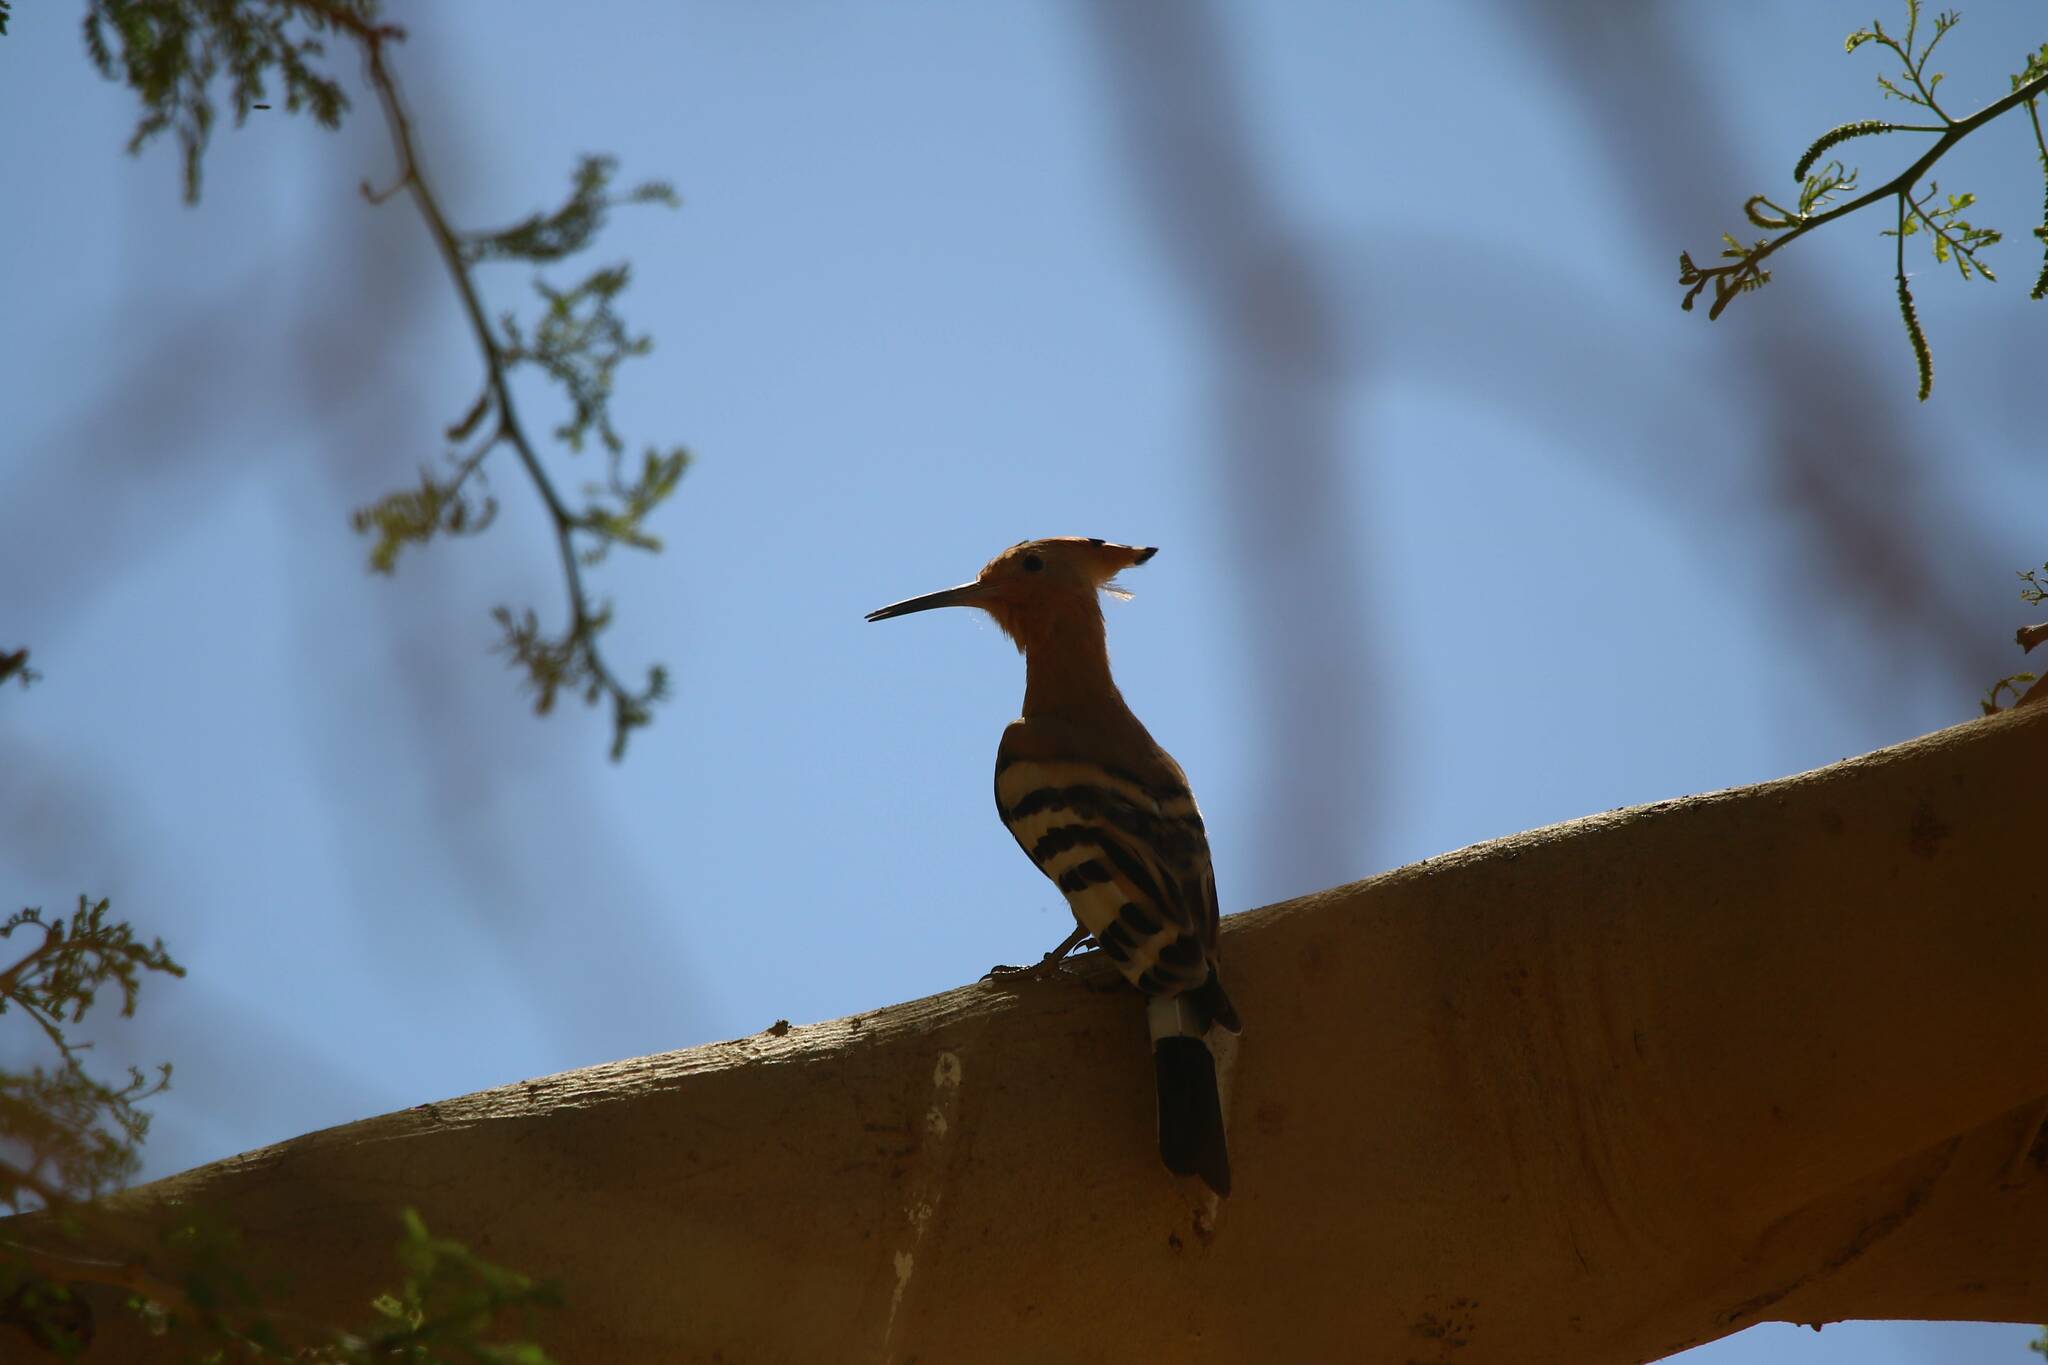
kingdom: Animalia
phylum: Chordata
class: Aves
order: Bucerotiformes
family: Upupidae
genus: Upupa
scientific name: Upupa epops
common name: Eurasian hoopoe
